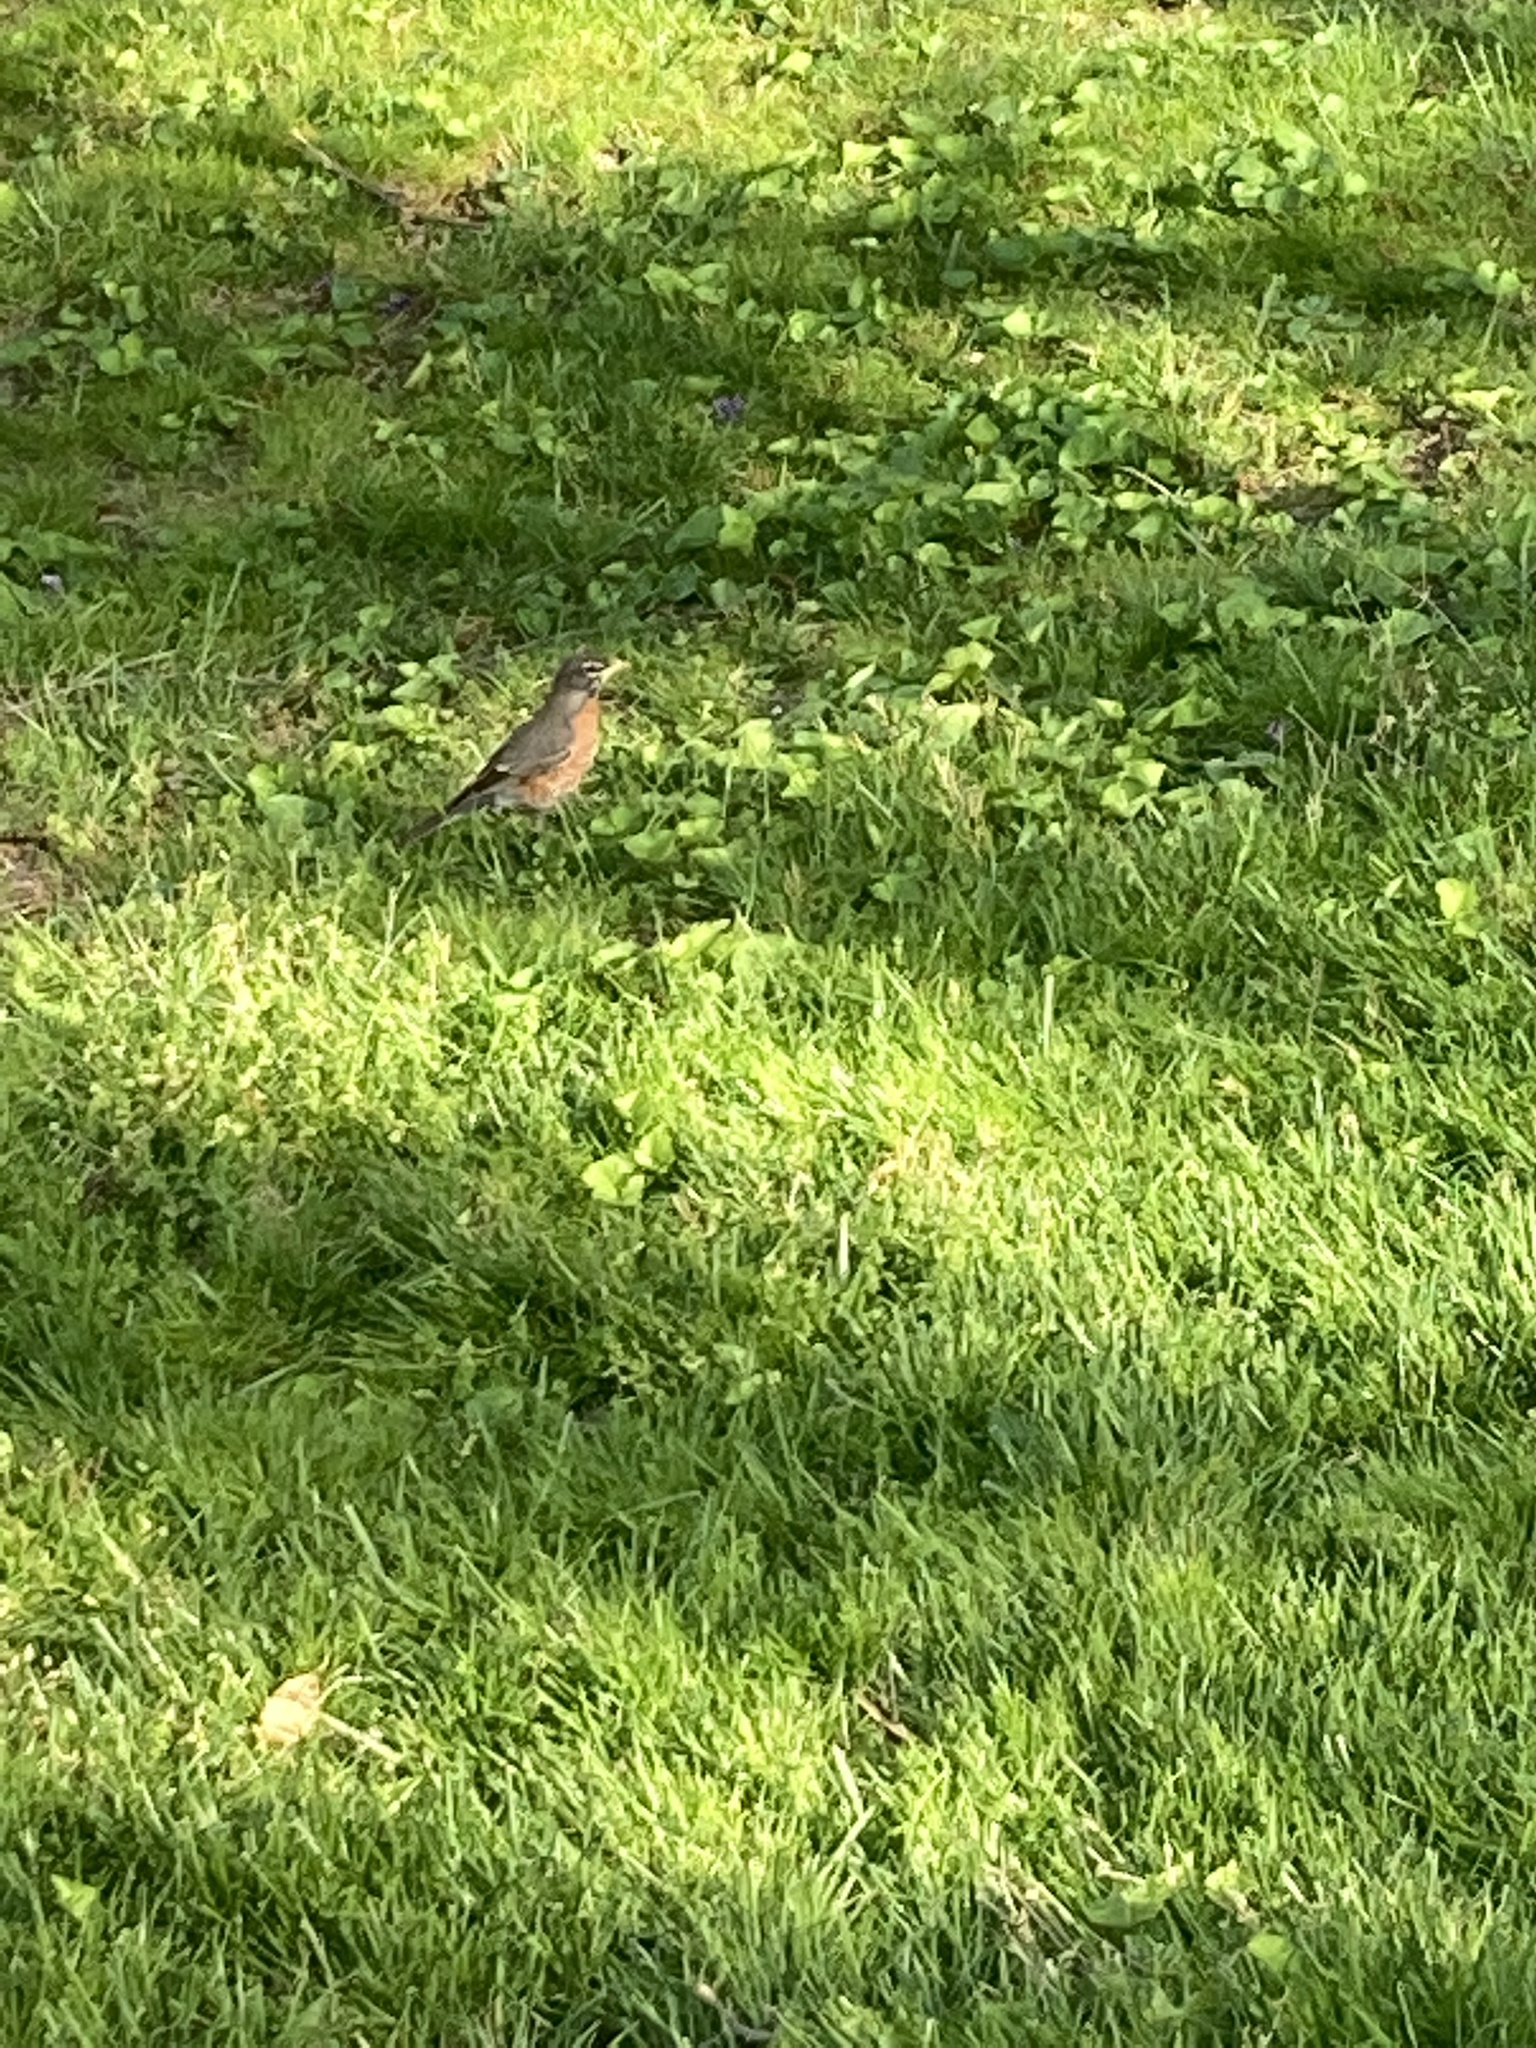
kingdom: Animalia
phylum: Chordata
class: Aves
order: Passeriformes
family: Turdidae
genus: Turdus
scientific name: Turdus migratorius
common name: American robin
